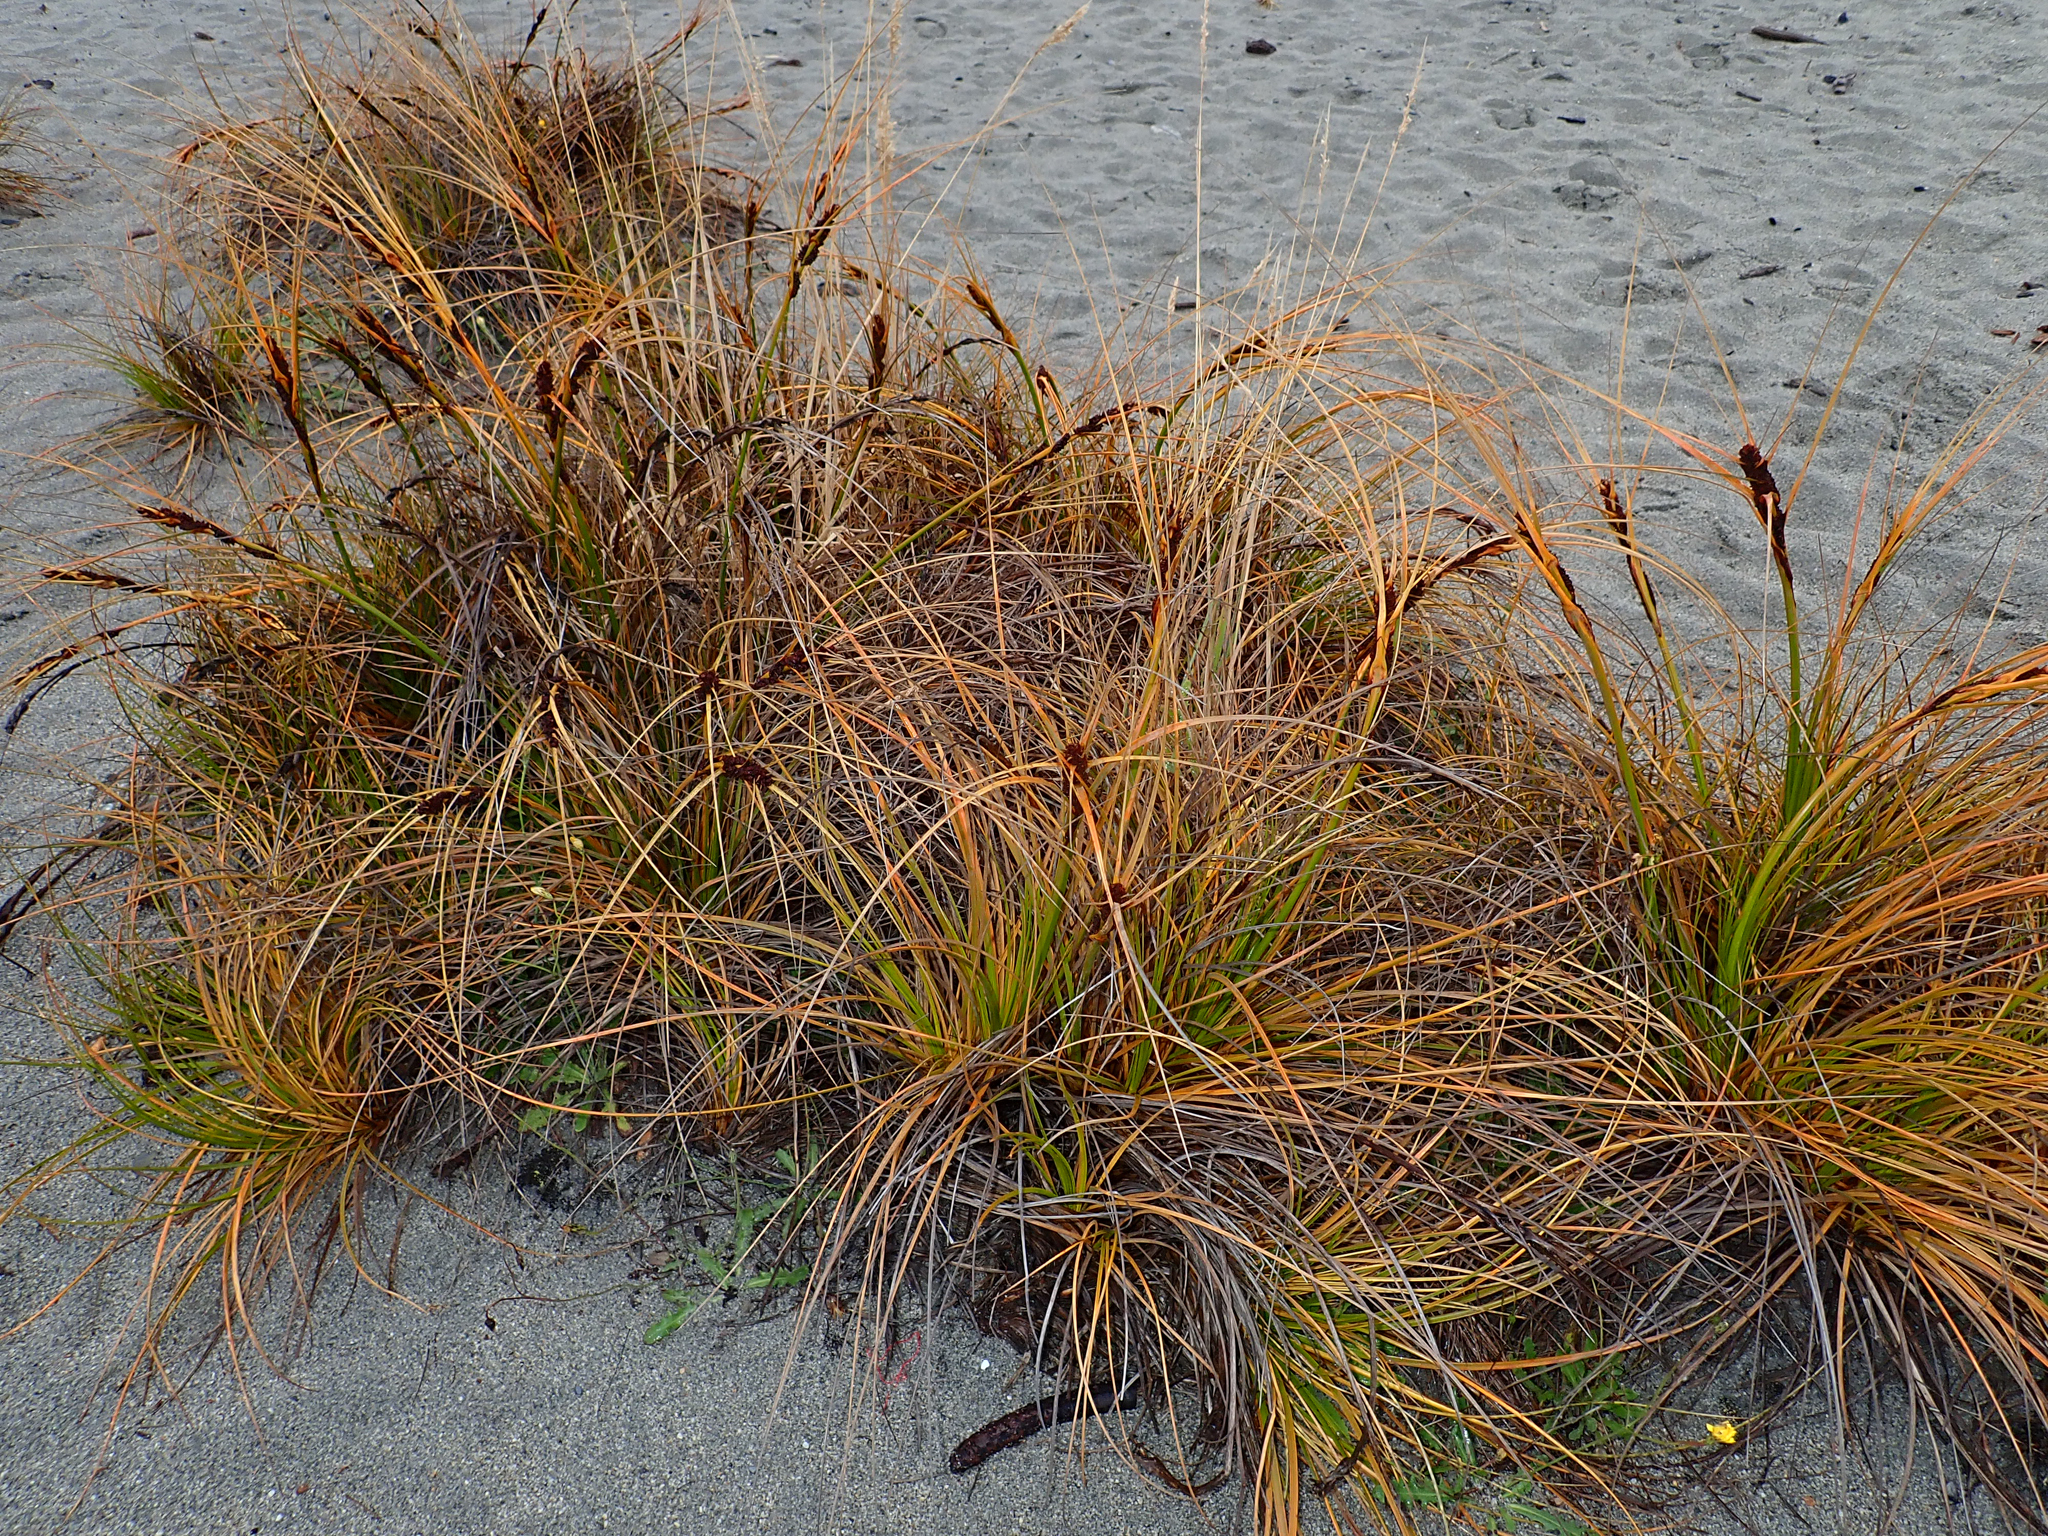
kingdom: Plantae
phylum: Tracheophyta
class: Liliopsida
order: Poales
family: Cyperaceae
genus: Ficinia
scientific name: Ficinia spiralis
